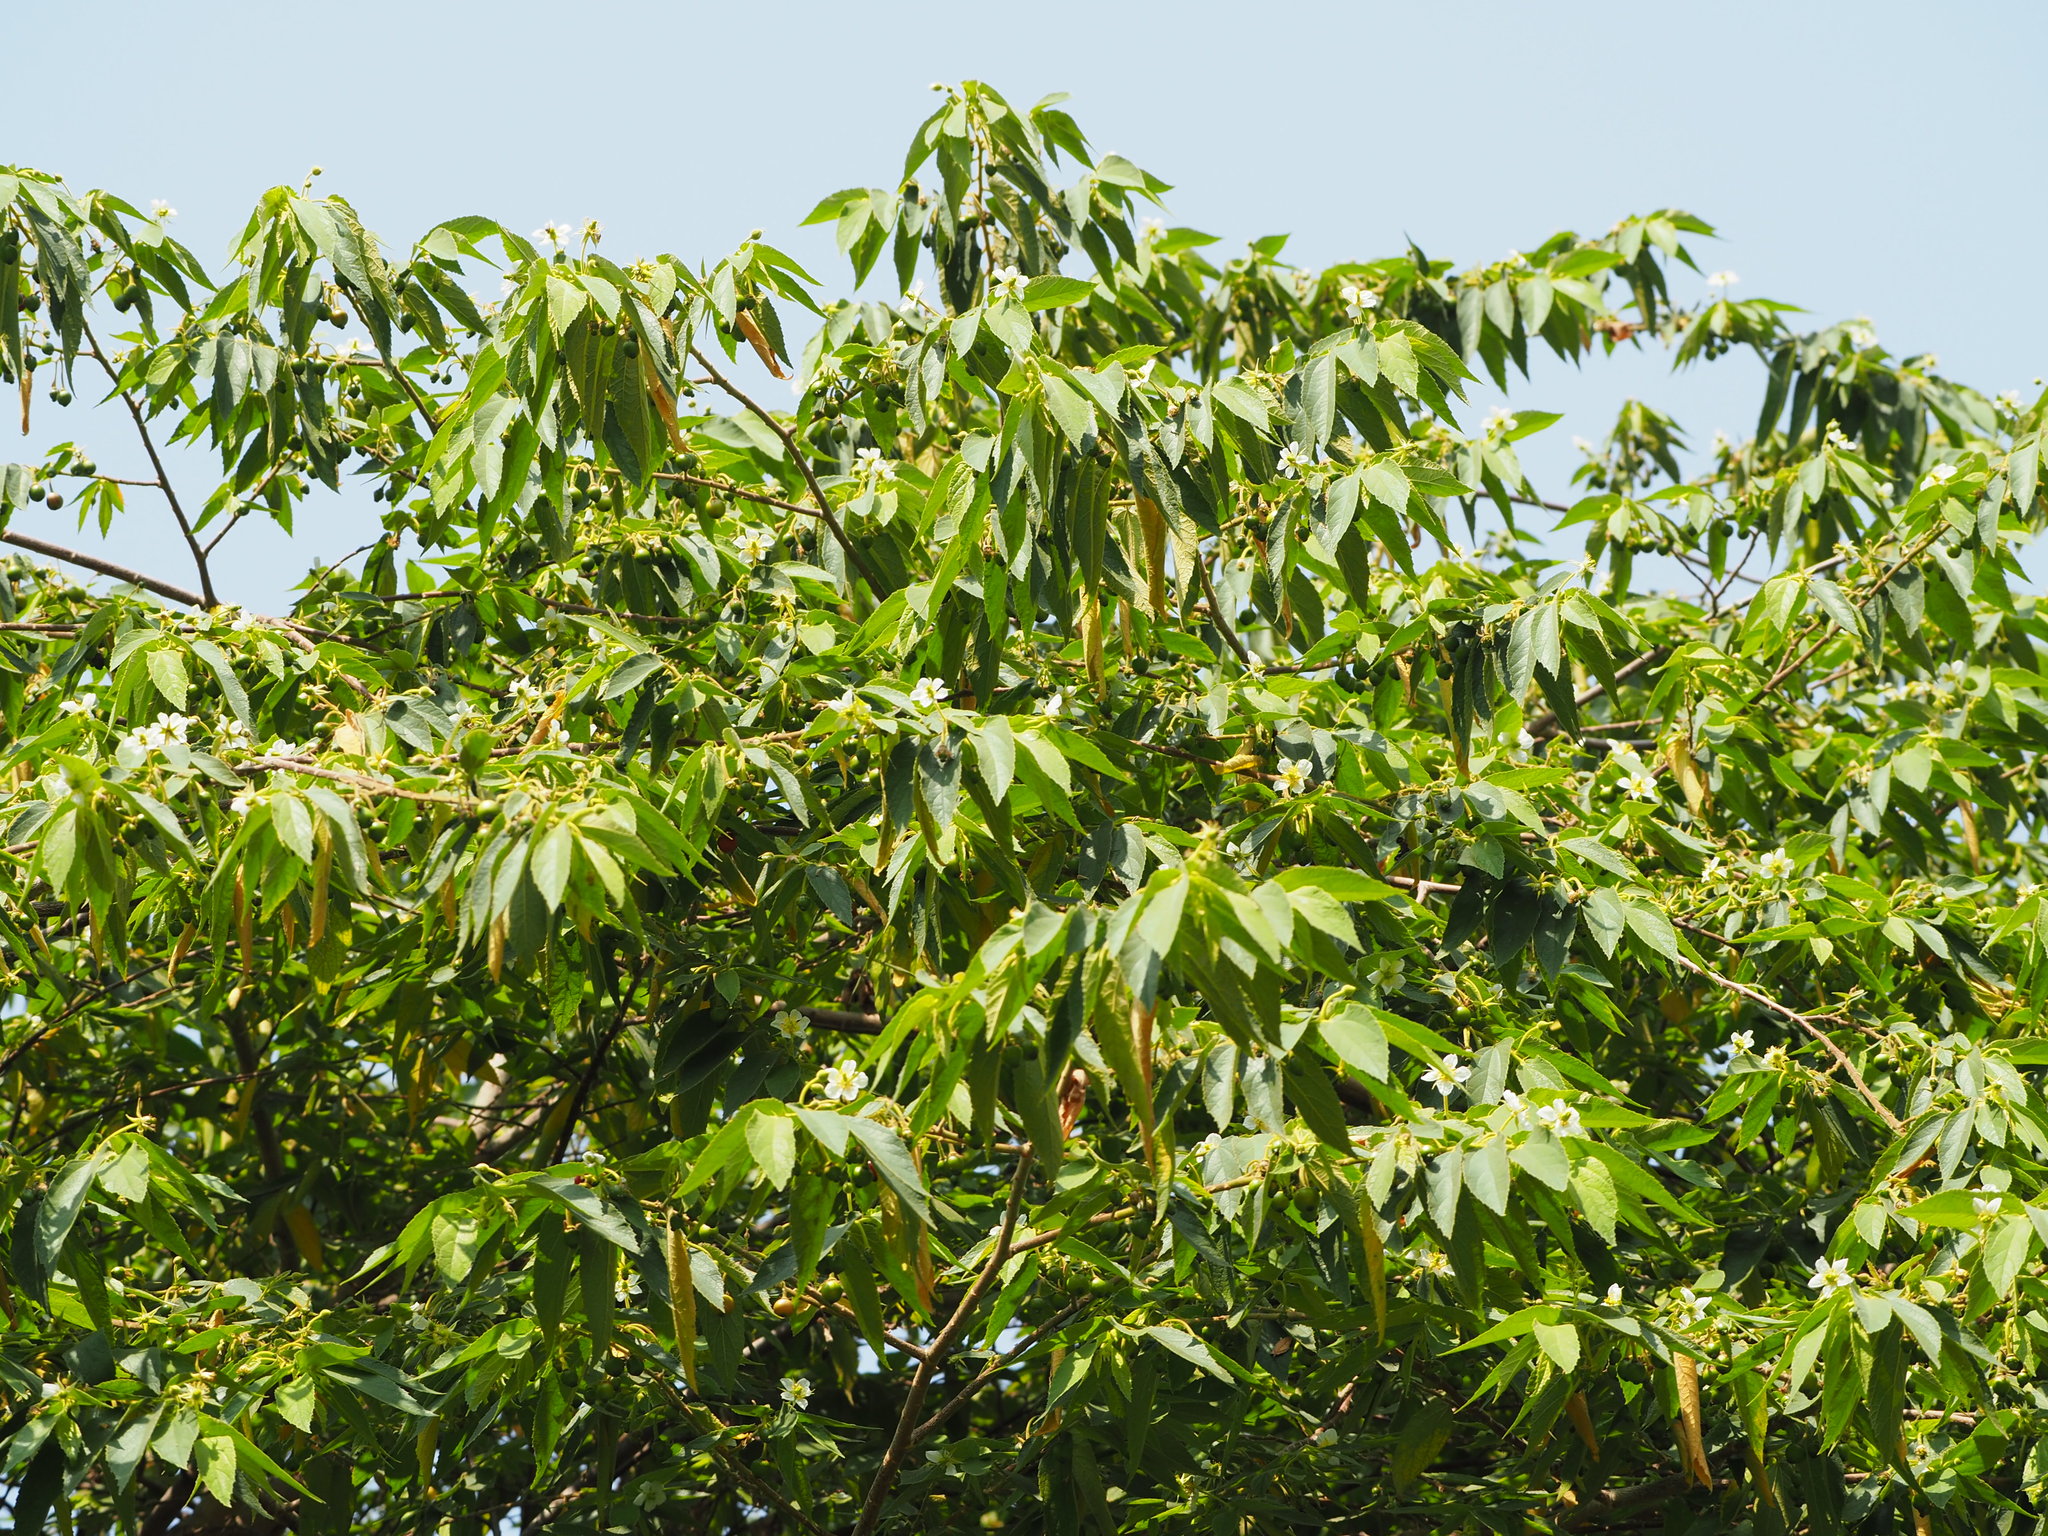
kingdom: Plantae
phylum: Tracheophyta
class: Magnoliopsida
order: Malvales
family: Muntingiaceae
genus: Muntingia
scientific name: Muntingia calabura
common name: Strawberrytree
